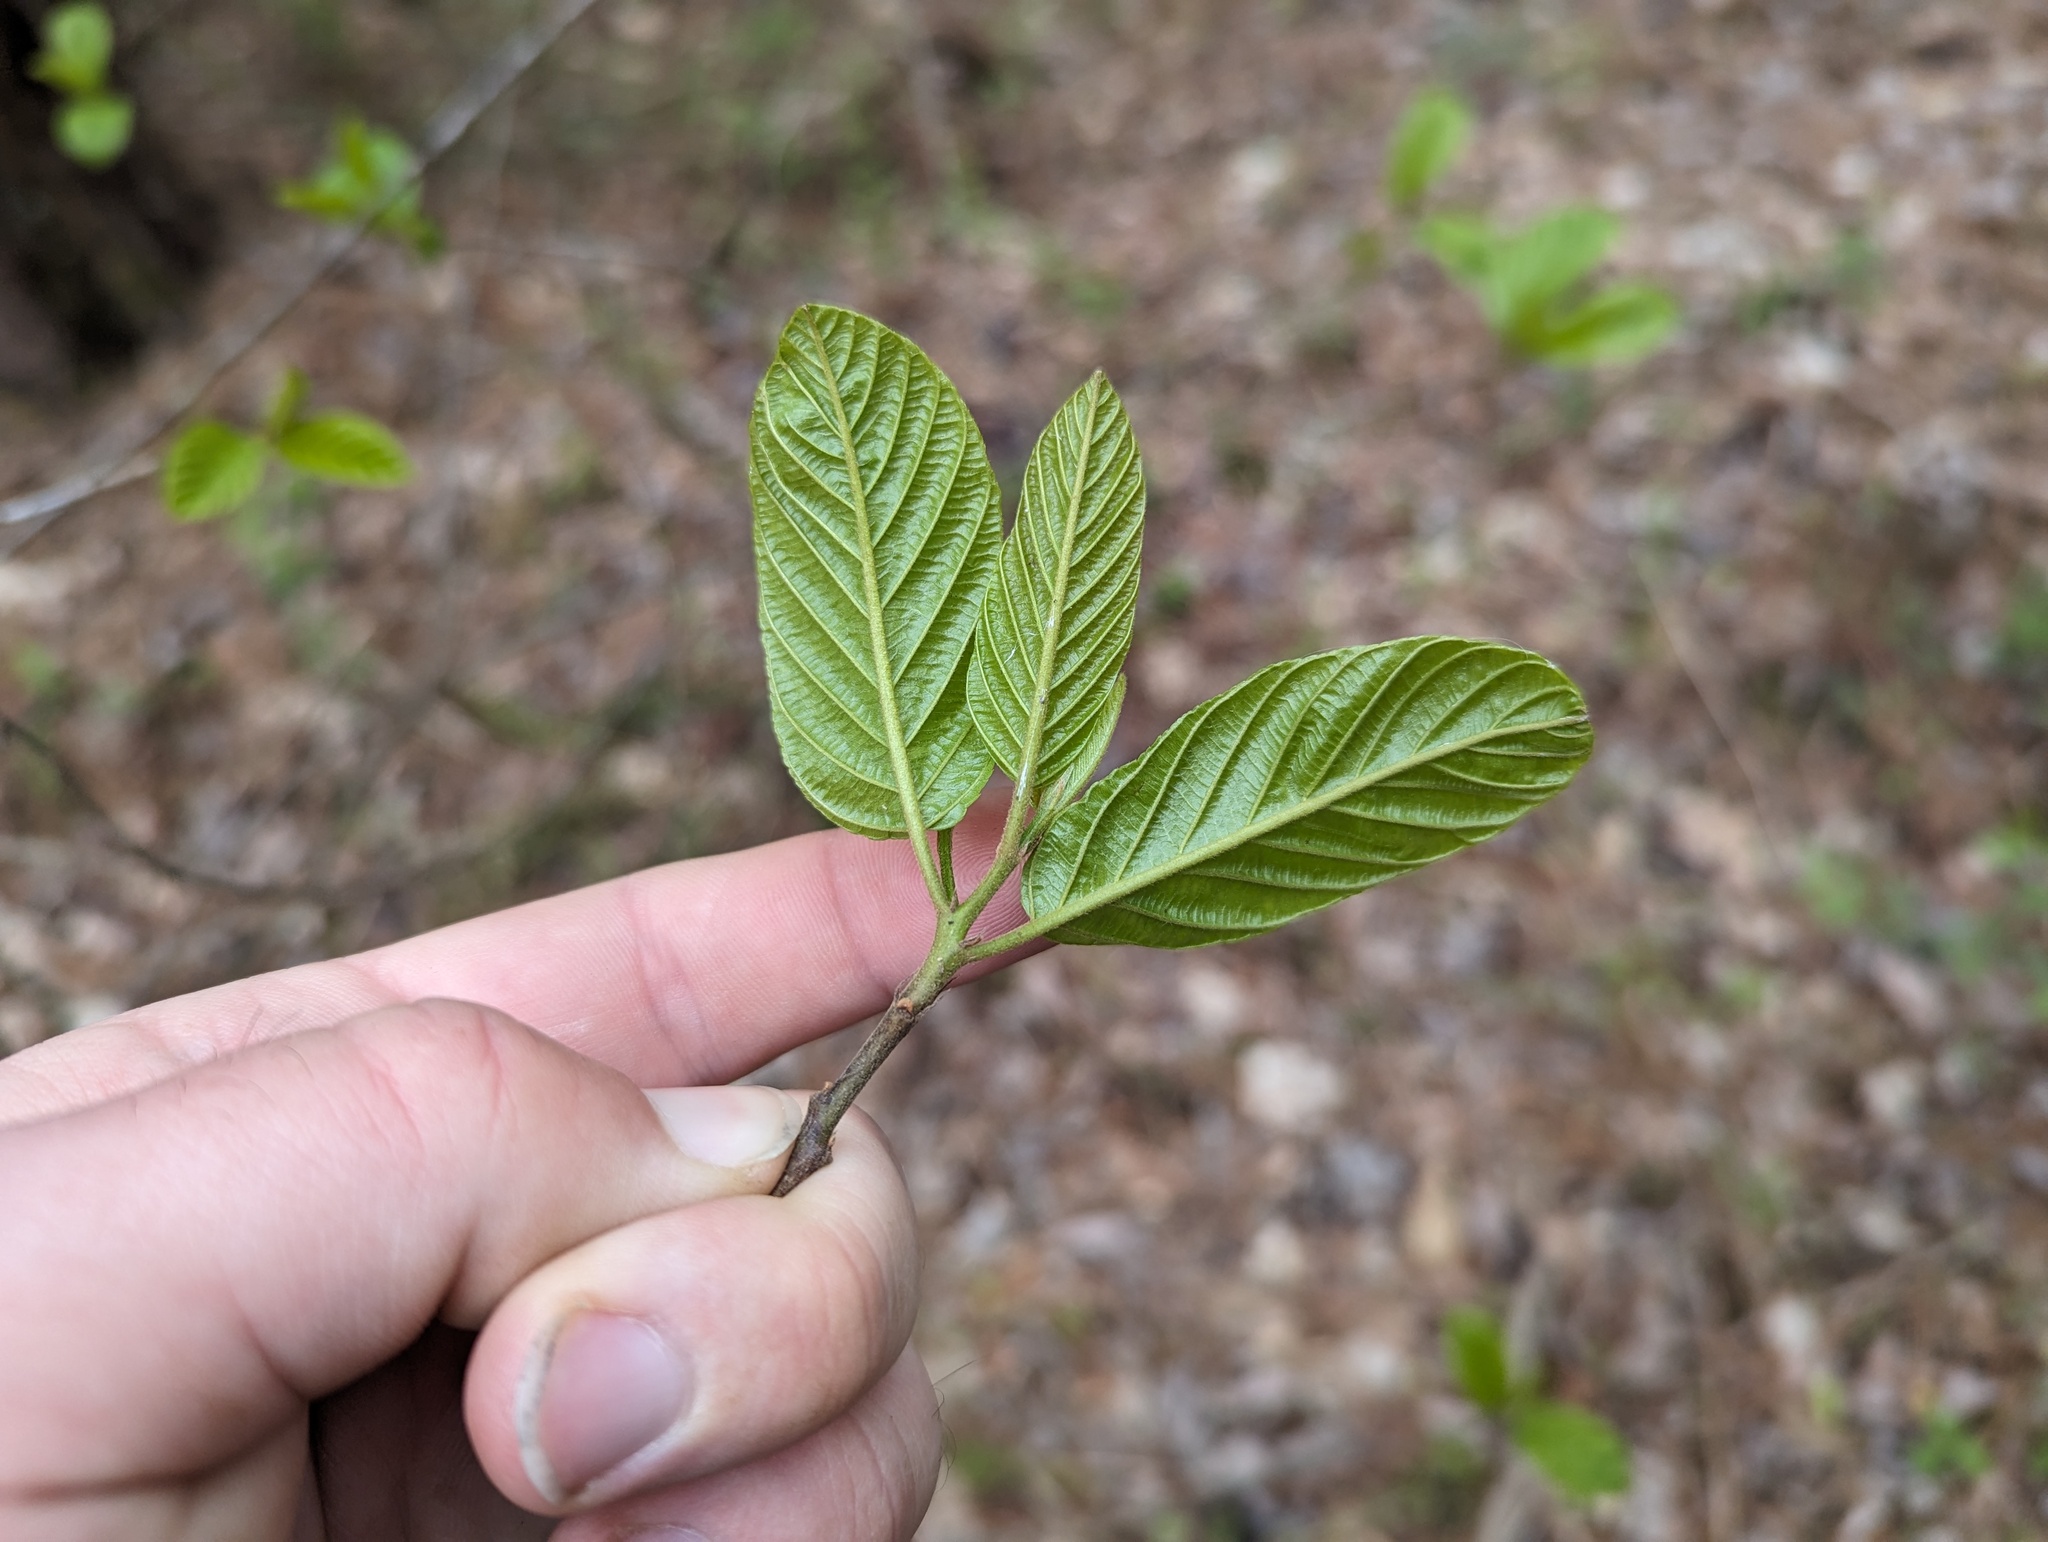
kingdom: Plantae
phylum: Tracheophyta
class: Magnoliopsida
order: Rosales
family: Rhamnaceae
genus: Frangula
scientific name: Frangula caroliniana
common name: Carolina buckthorn
